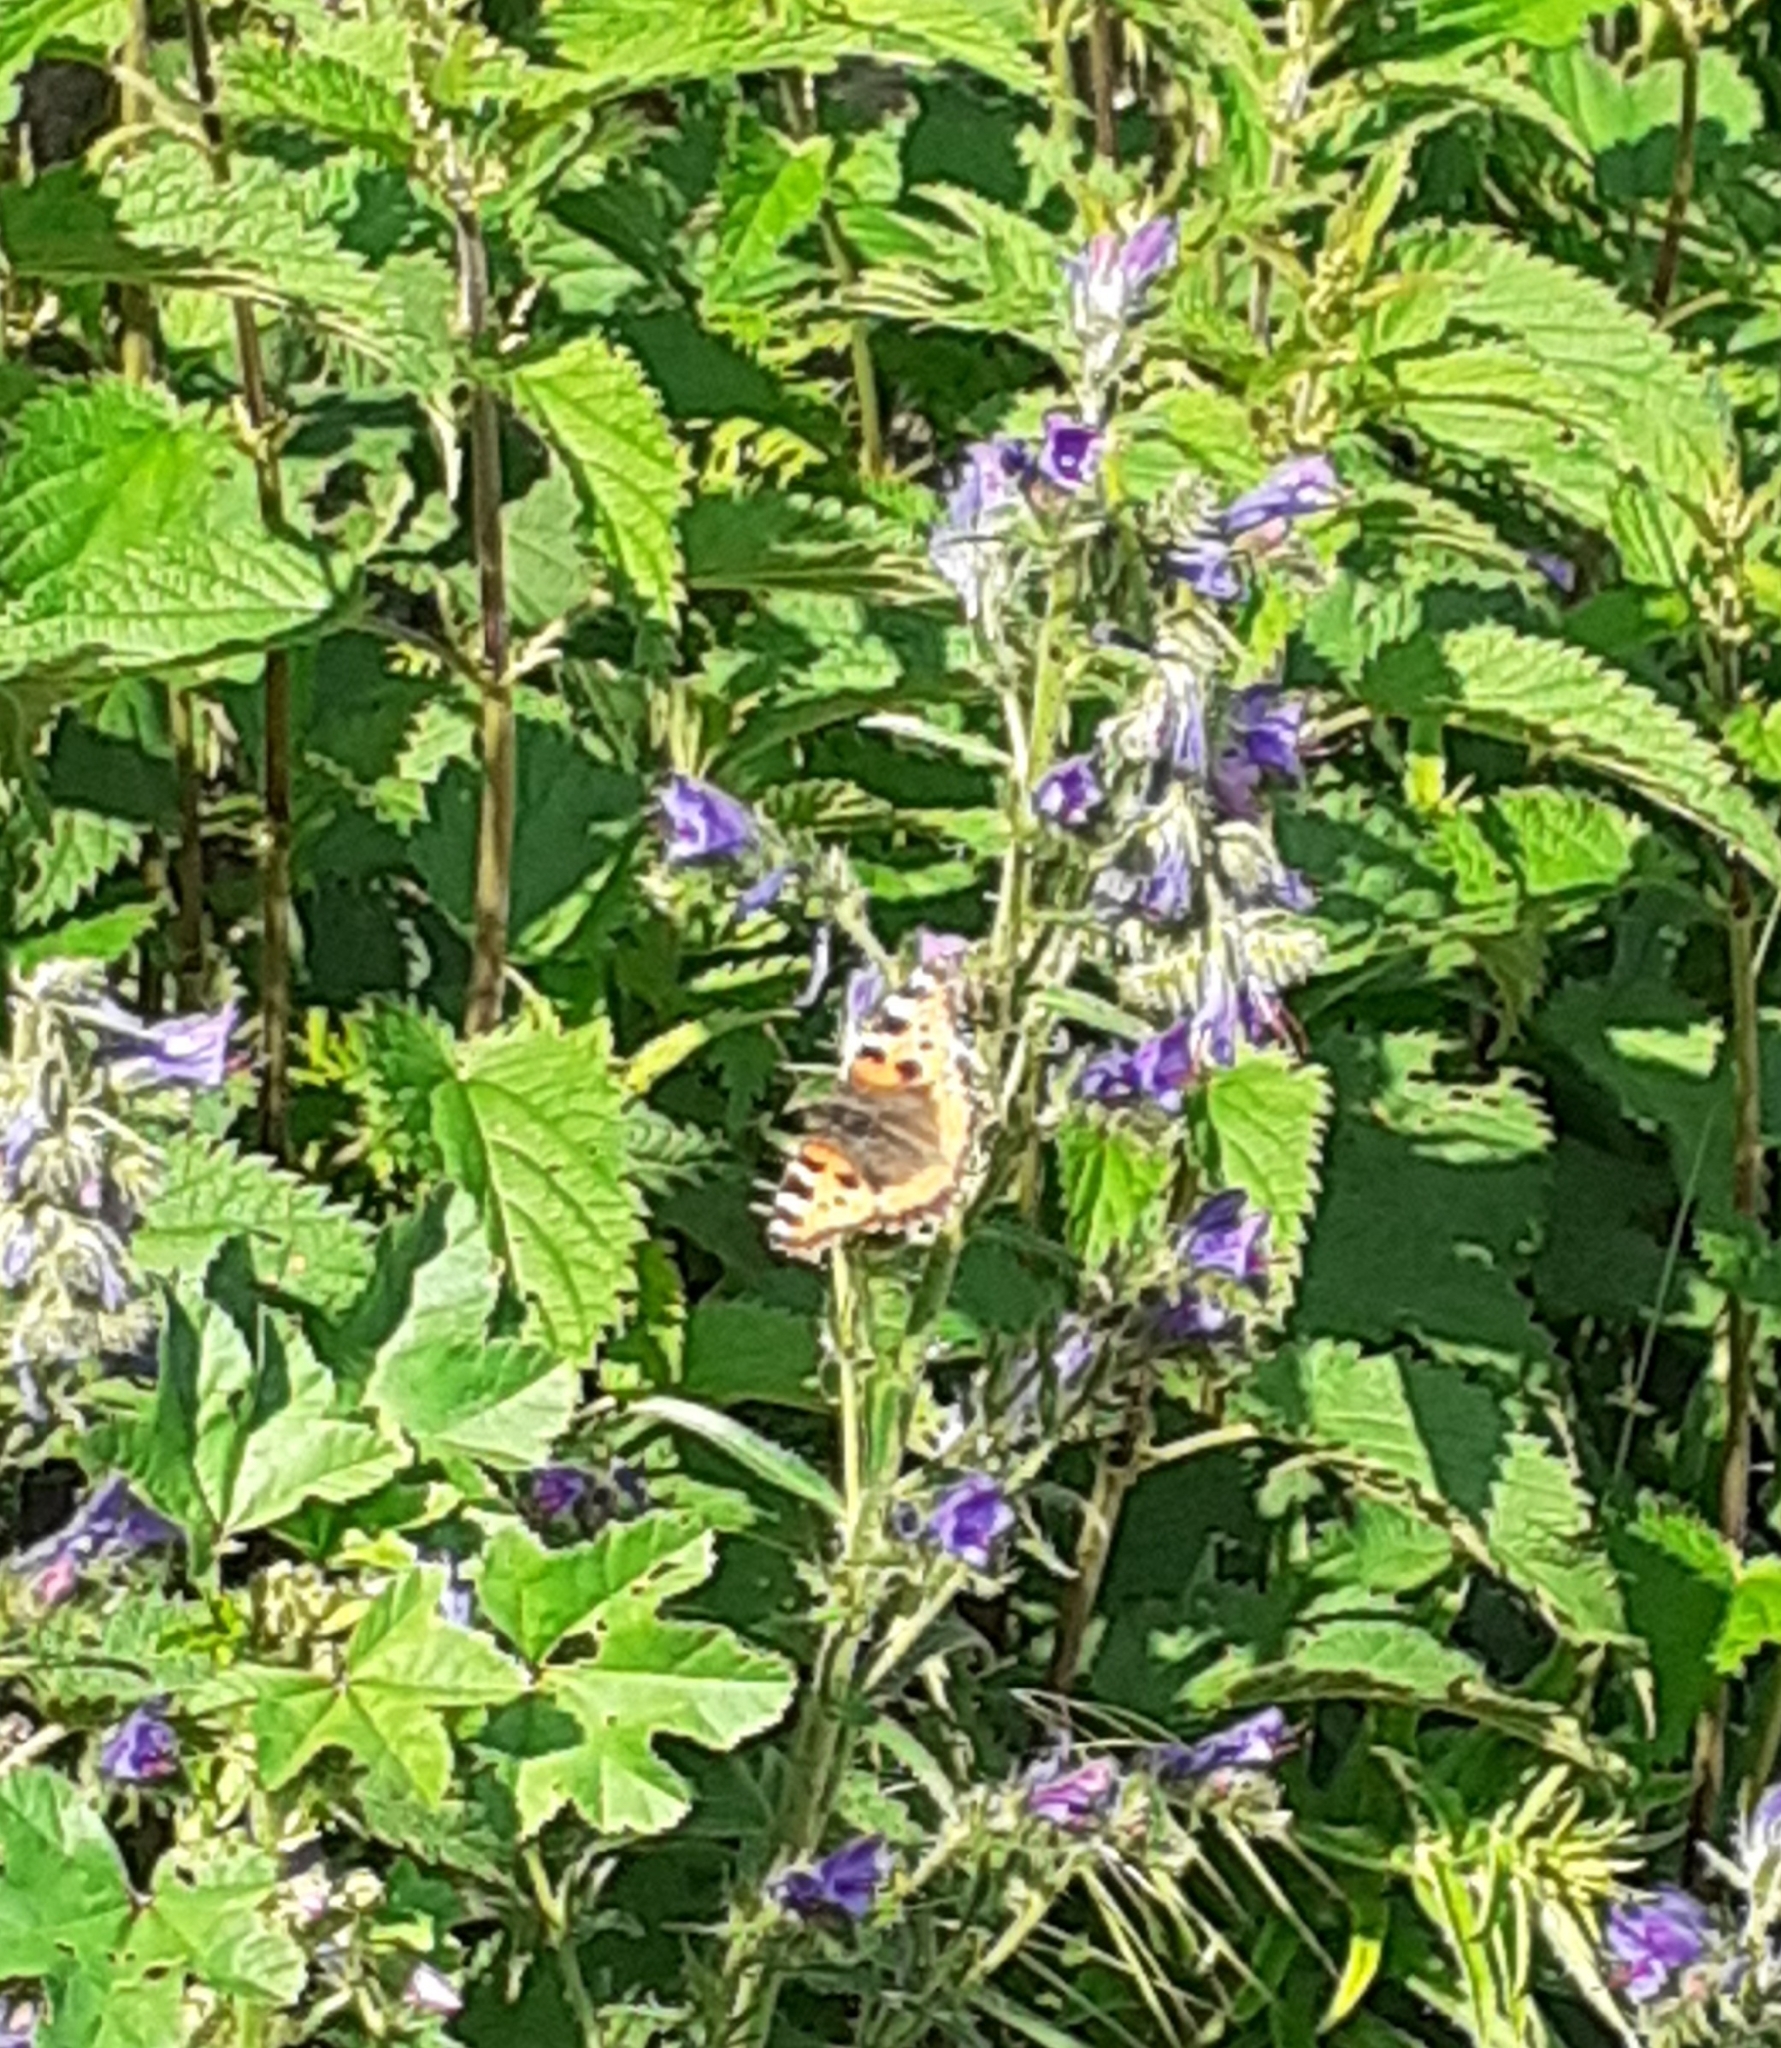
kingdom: Animalia
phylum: Arthropoda
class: Insecta
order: Lepidoptera
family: Nymphalidae
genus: Aglais
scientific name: Aglais urticae
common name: Small tortoiseshell
